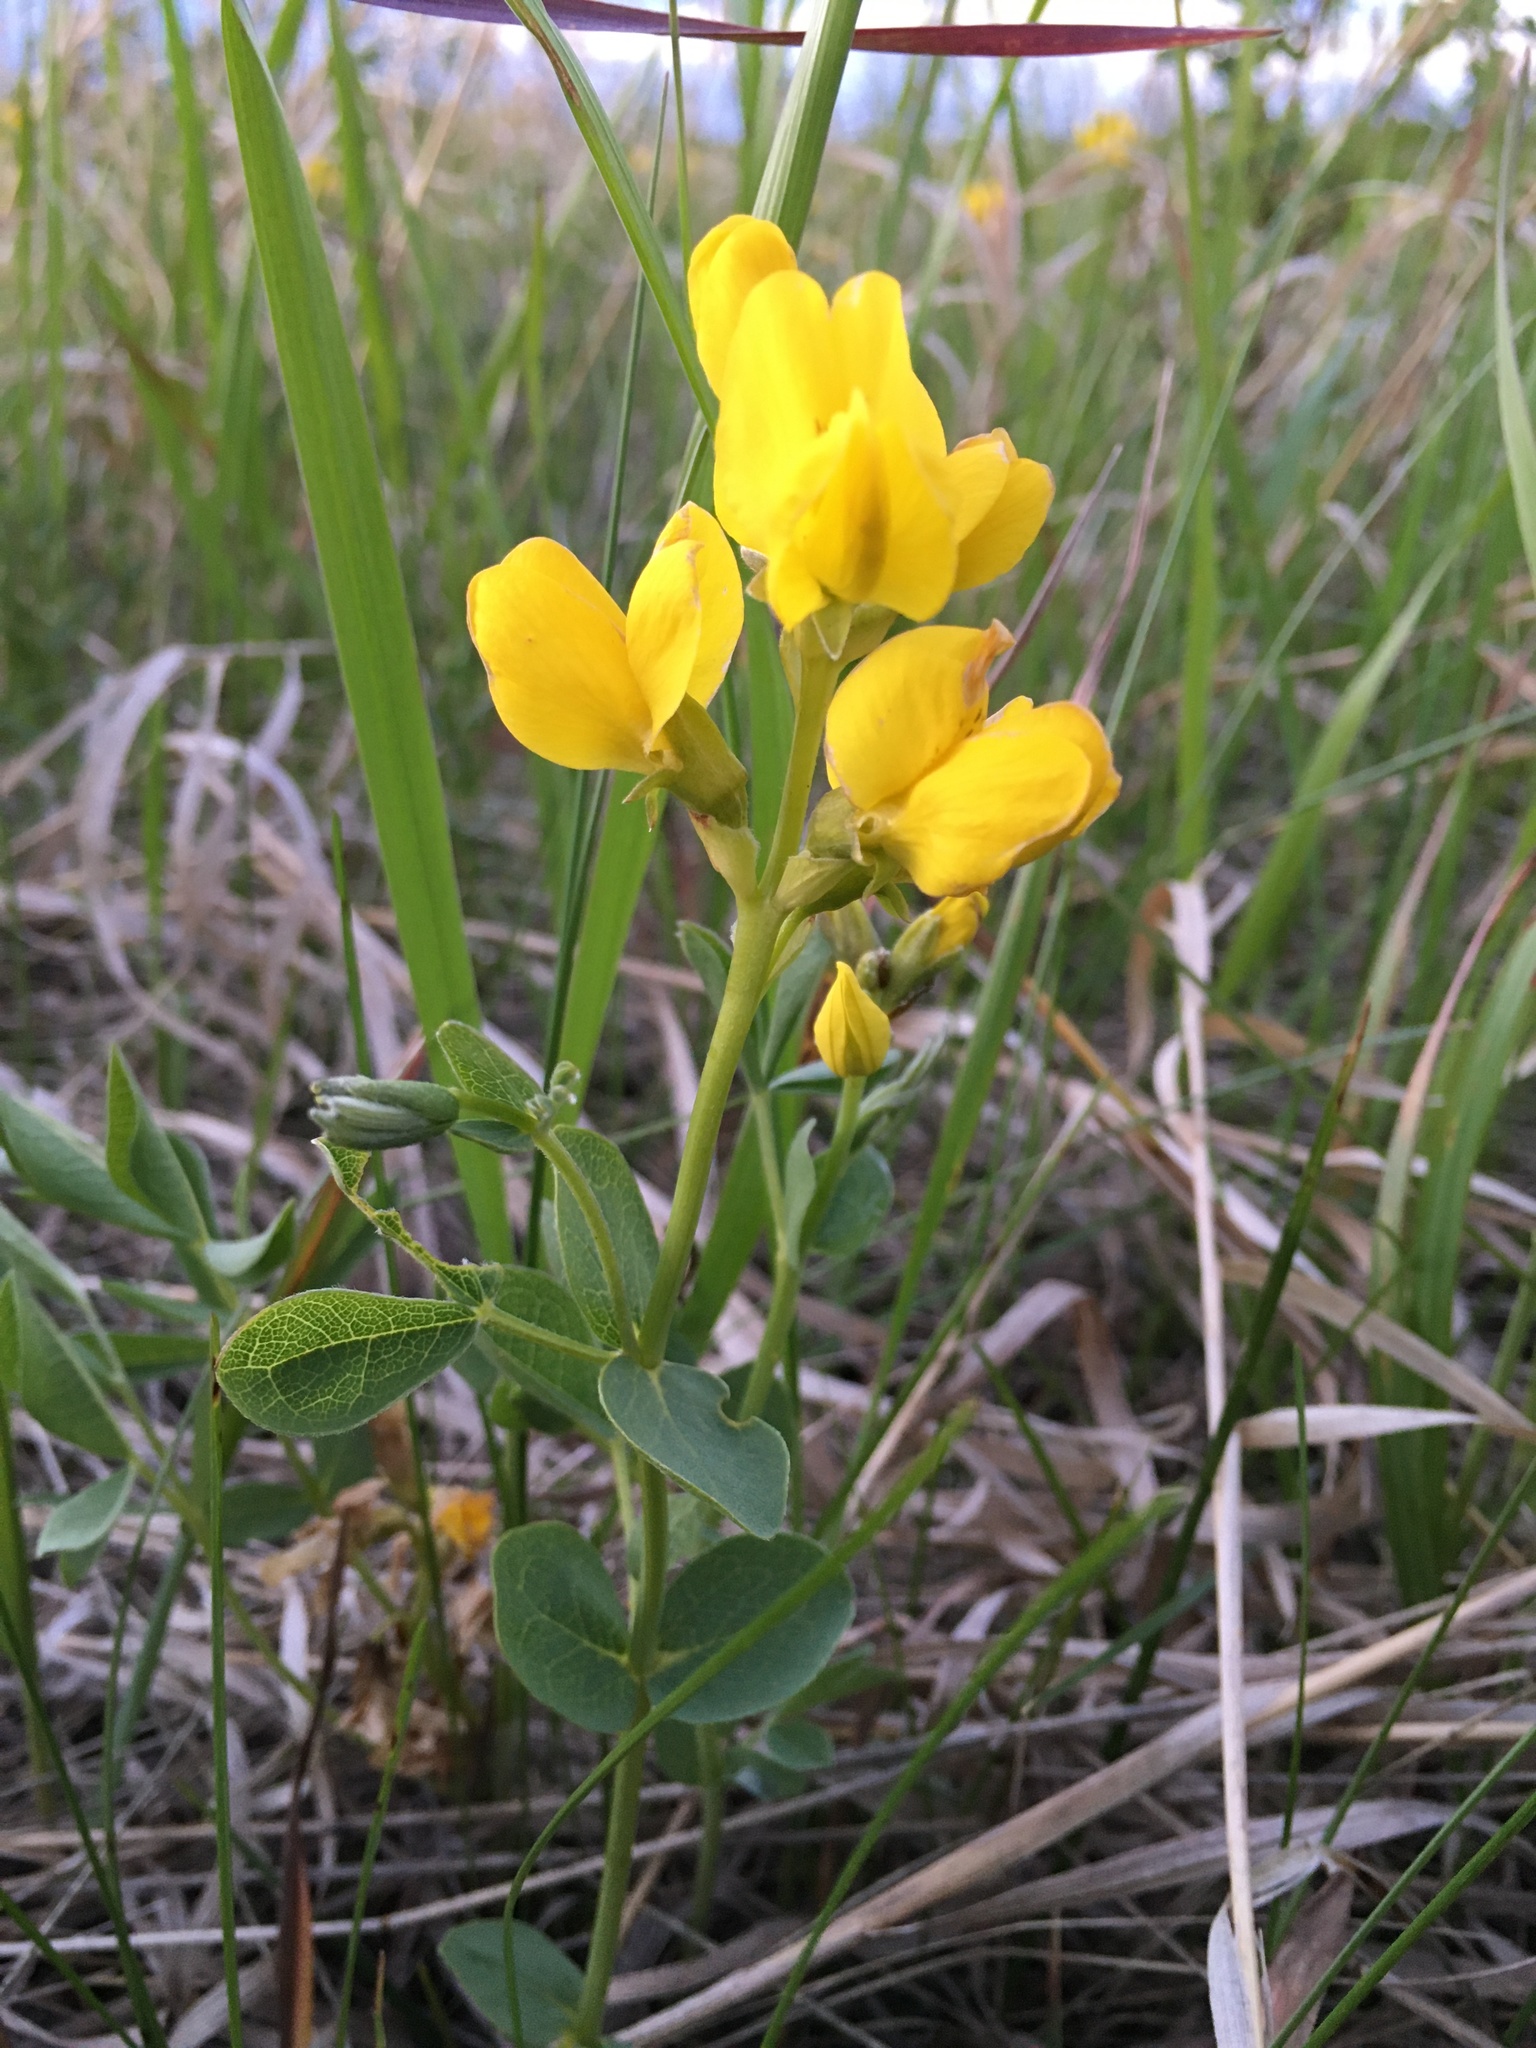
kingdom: Plantae
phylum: Tracheophyta
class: Magnoliopsida
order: Fabales
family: Fabaceae
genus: Thermopsis
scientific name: Thermopsis rhombifolia
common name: Circle-pod-pea
